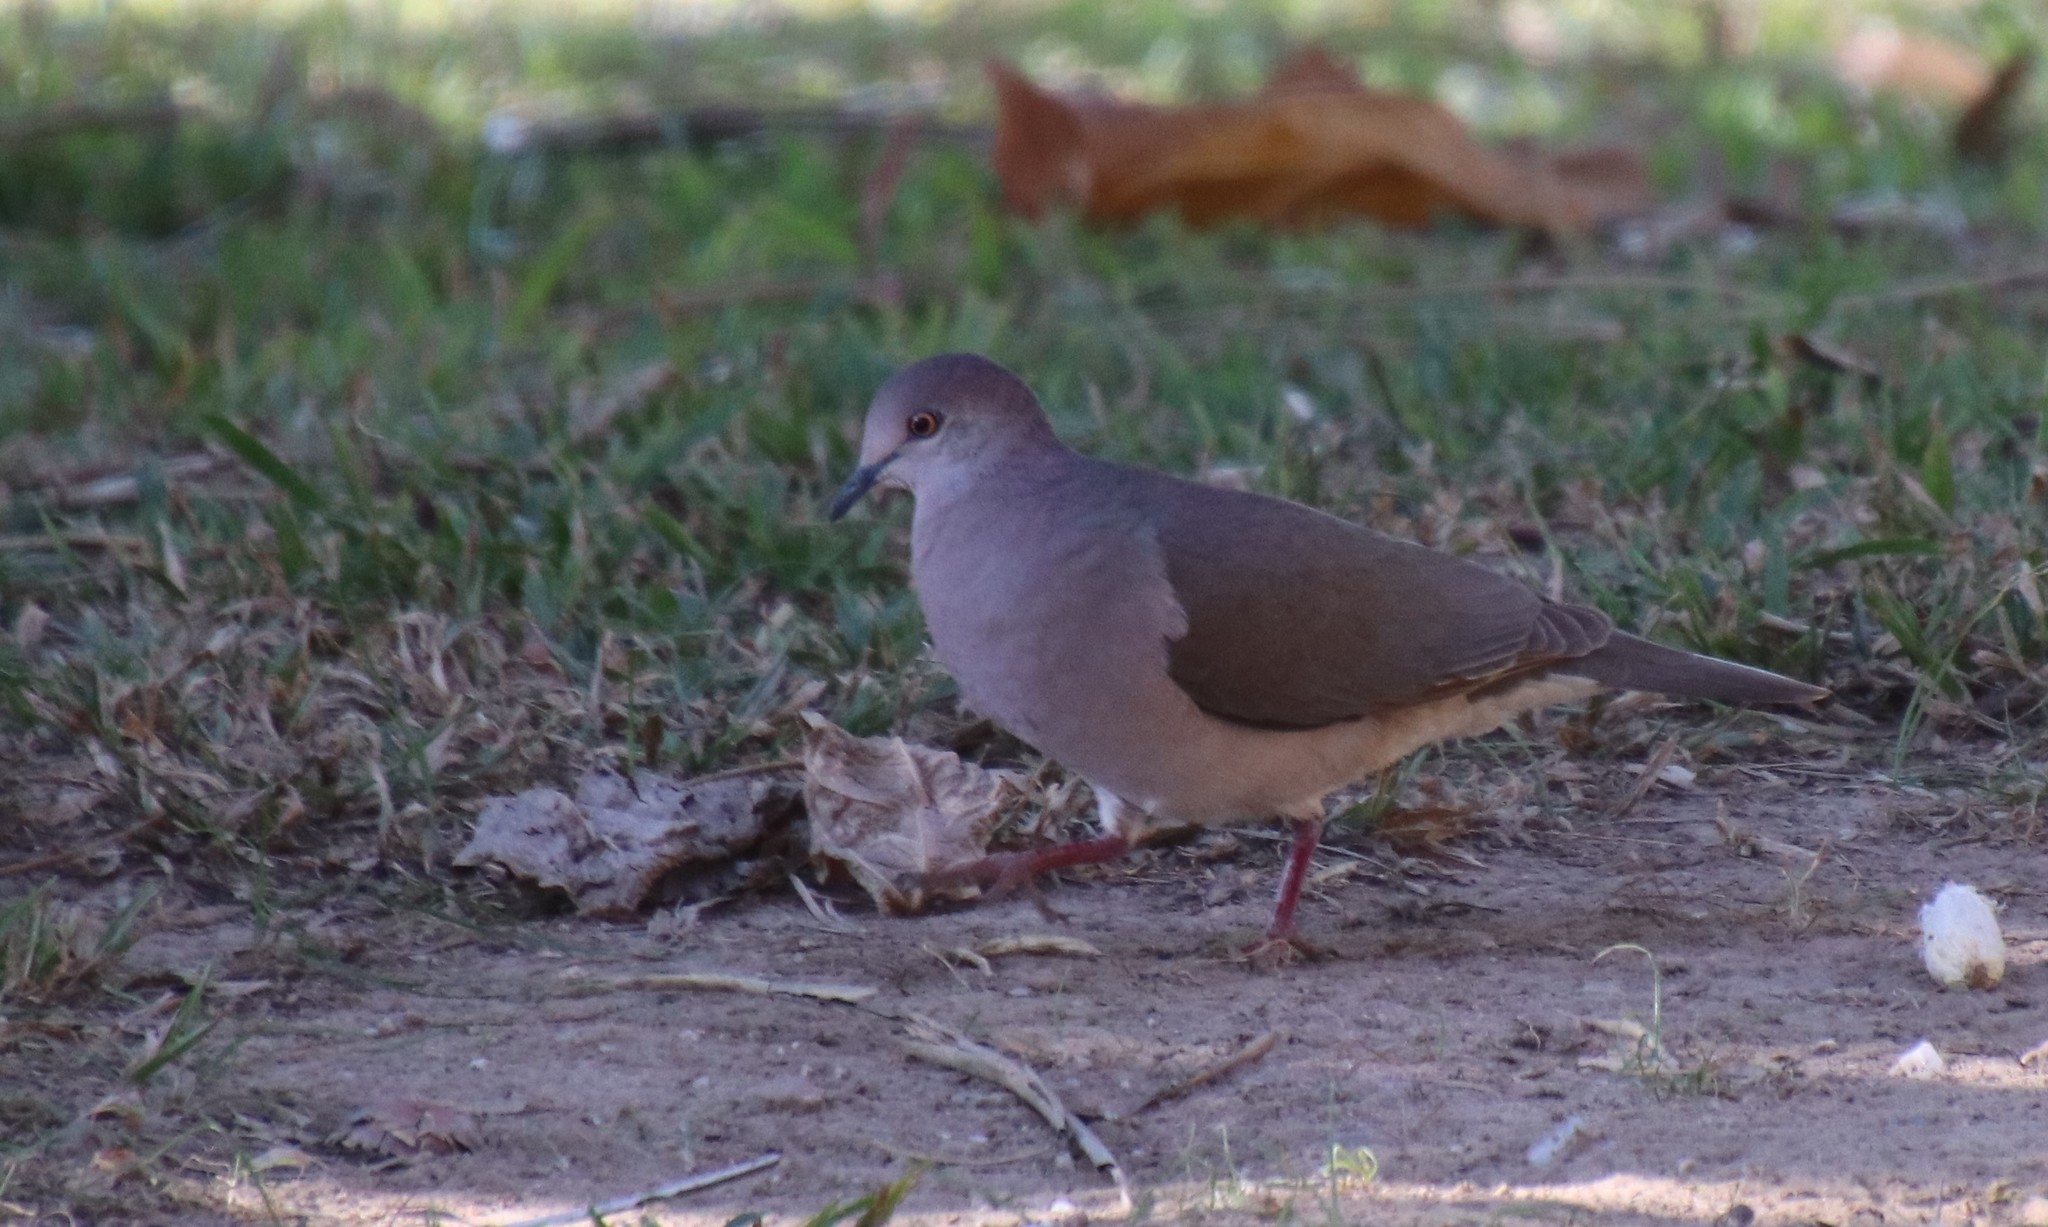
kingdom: Animalia
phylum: Chordata
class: Aves
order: Columbiformes
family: Columbidae
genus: Leptotila
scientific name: Leptotila verreauxi
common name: White-tipped dove
